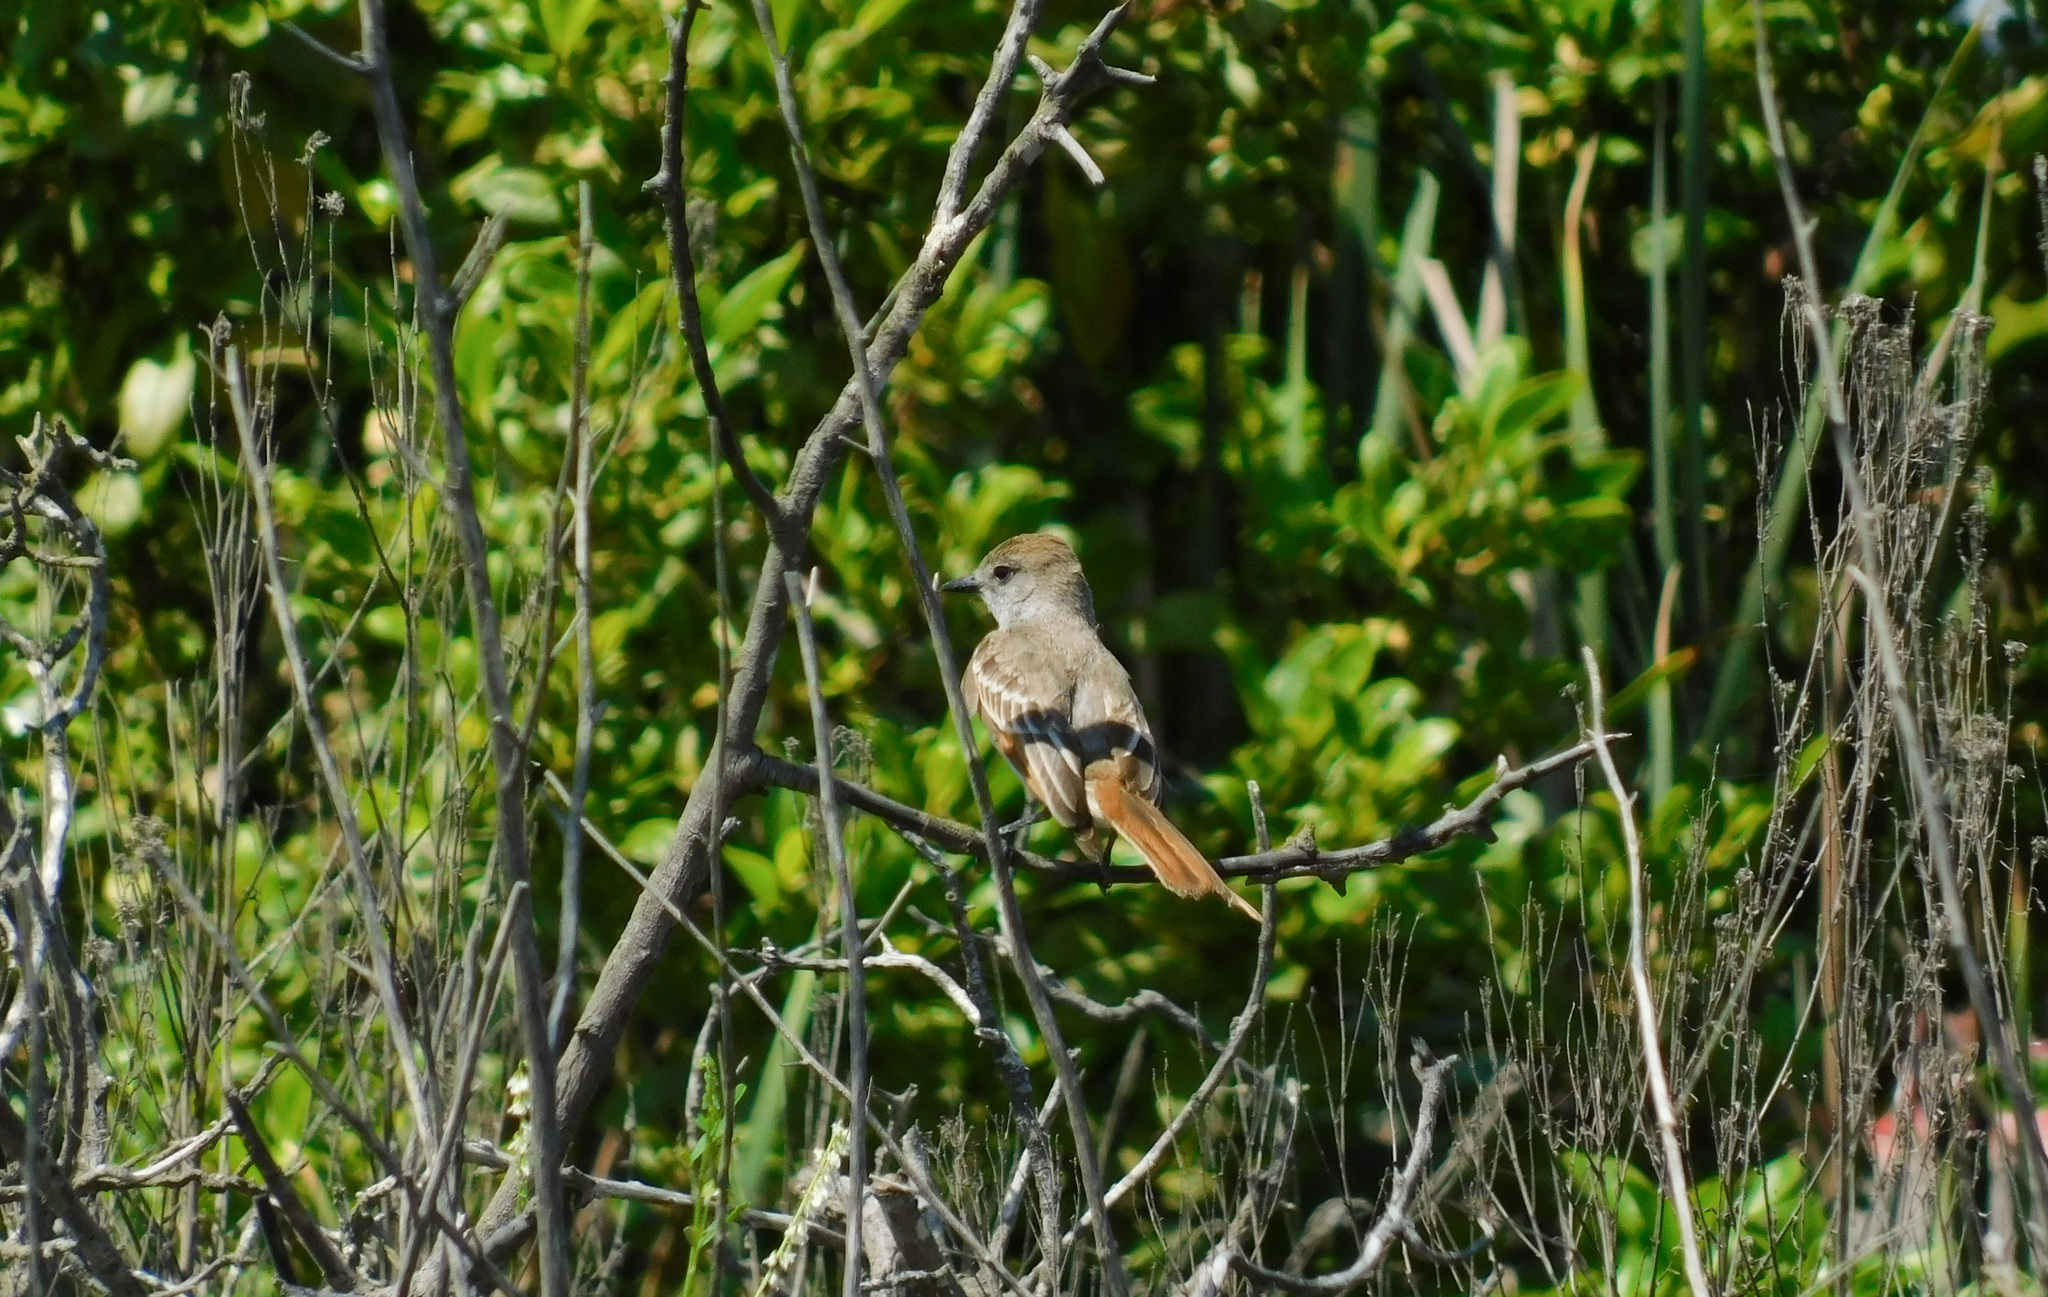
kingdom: Animalia
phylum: Chordata
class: Aves
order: Passeriformes
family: Tyrannidae
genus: Myiarchus
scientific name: Myiarchus cinerascens
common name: Ash-throated flycatcher
